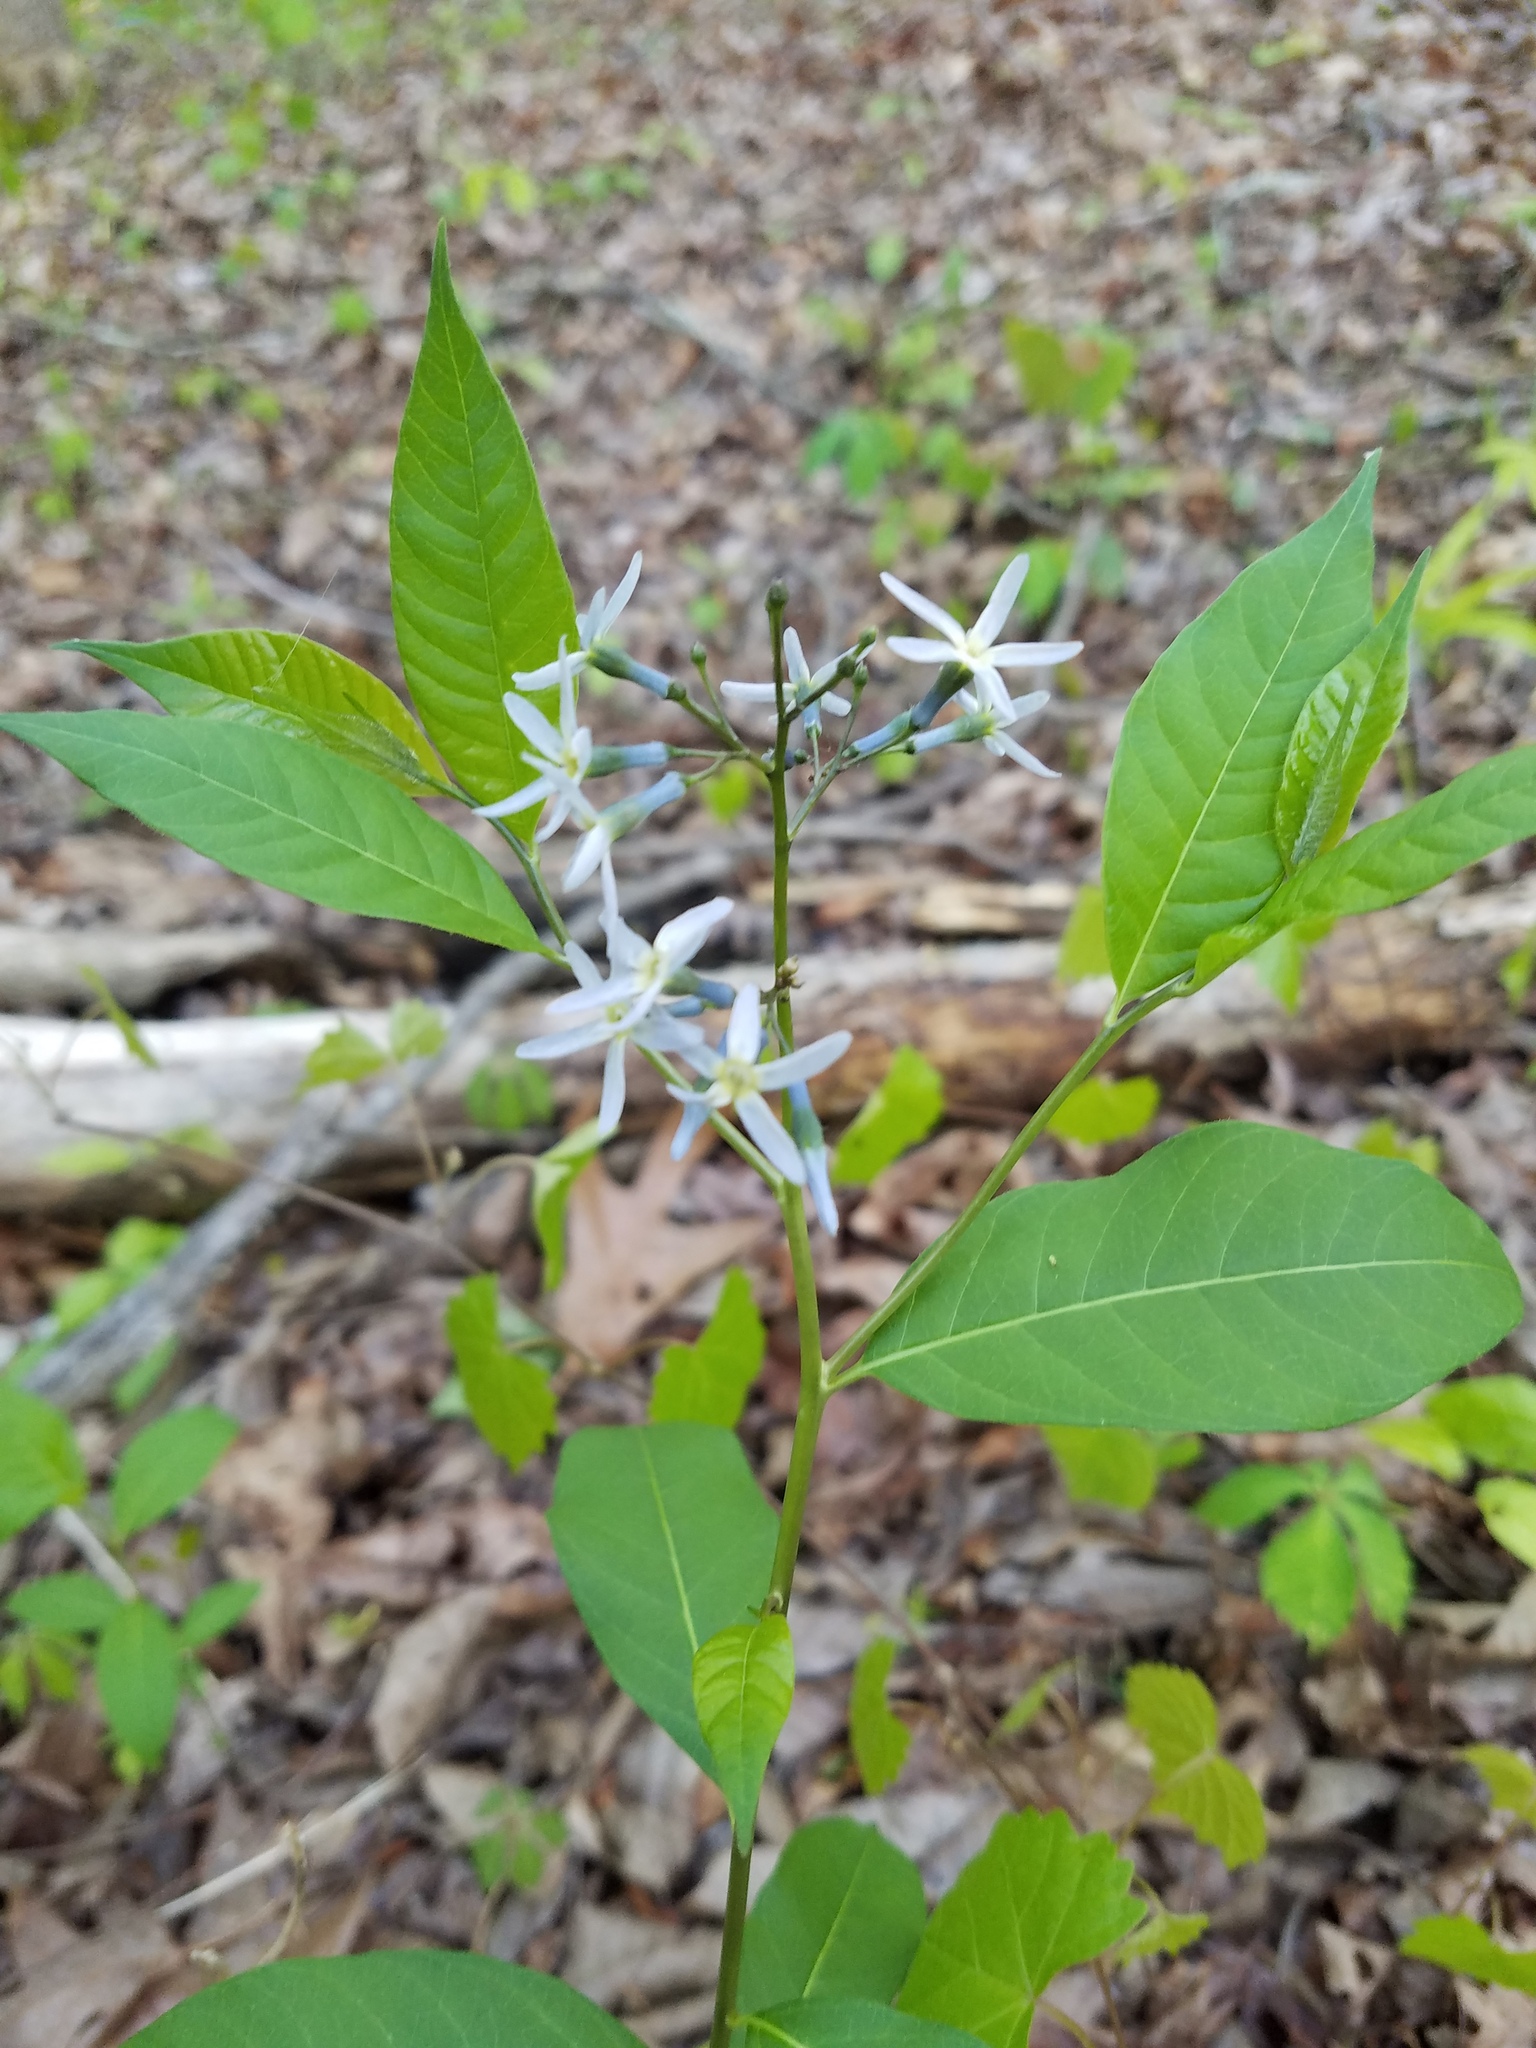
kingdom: Plantae
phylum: Tracheophyta
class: Magnoliopsida
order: Gentianales
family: Apocynaceae
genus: Amsonia
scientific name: Amsonia tabernaemontana
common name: Texas-star
